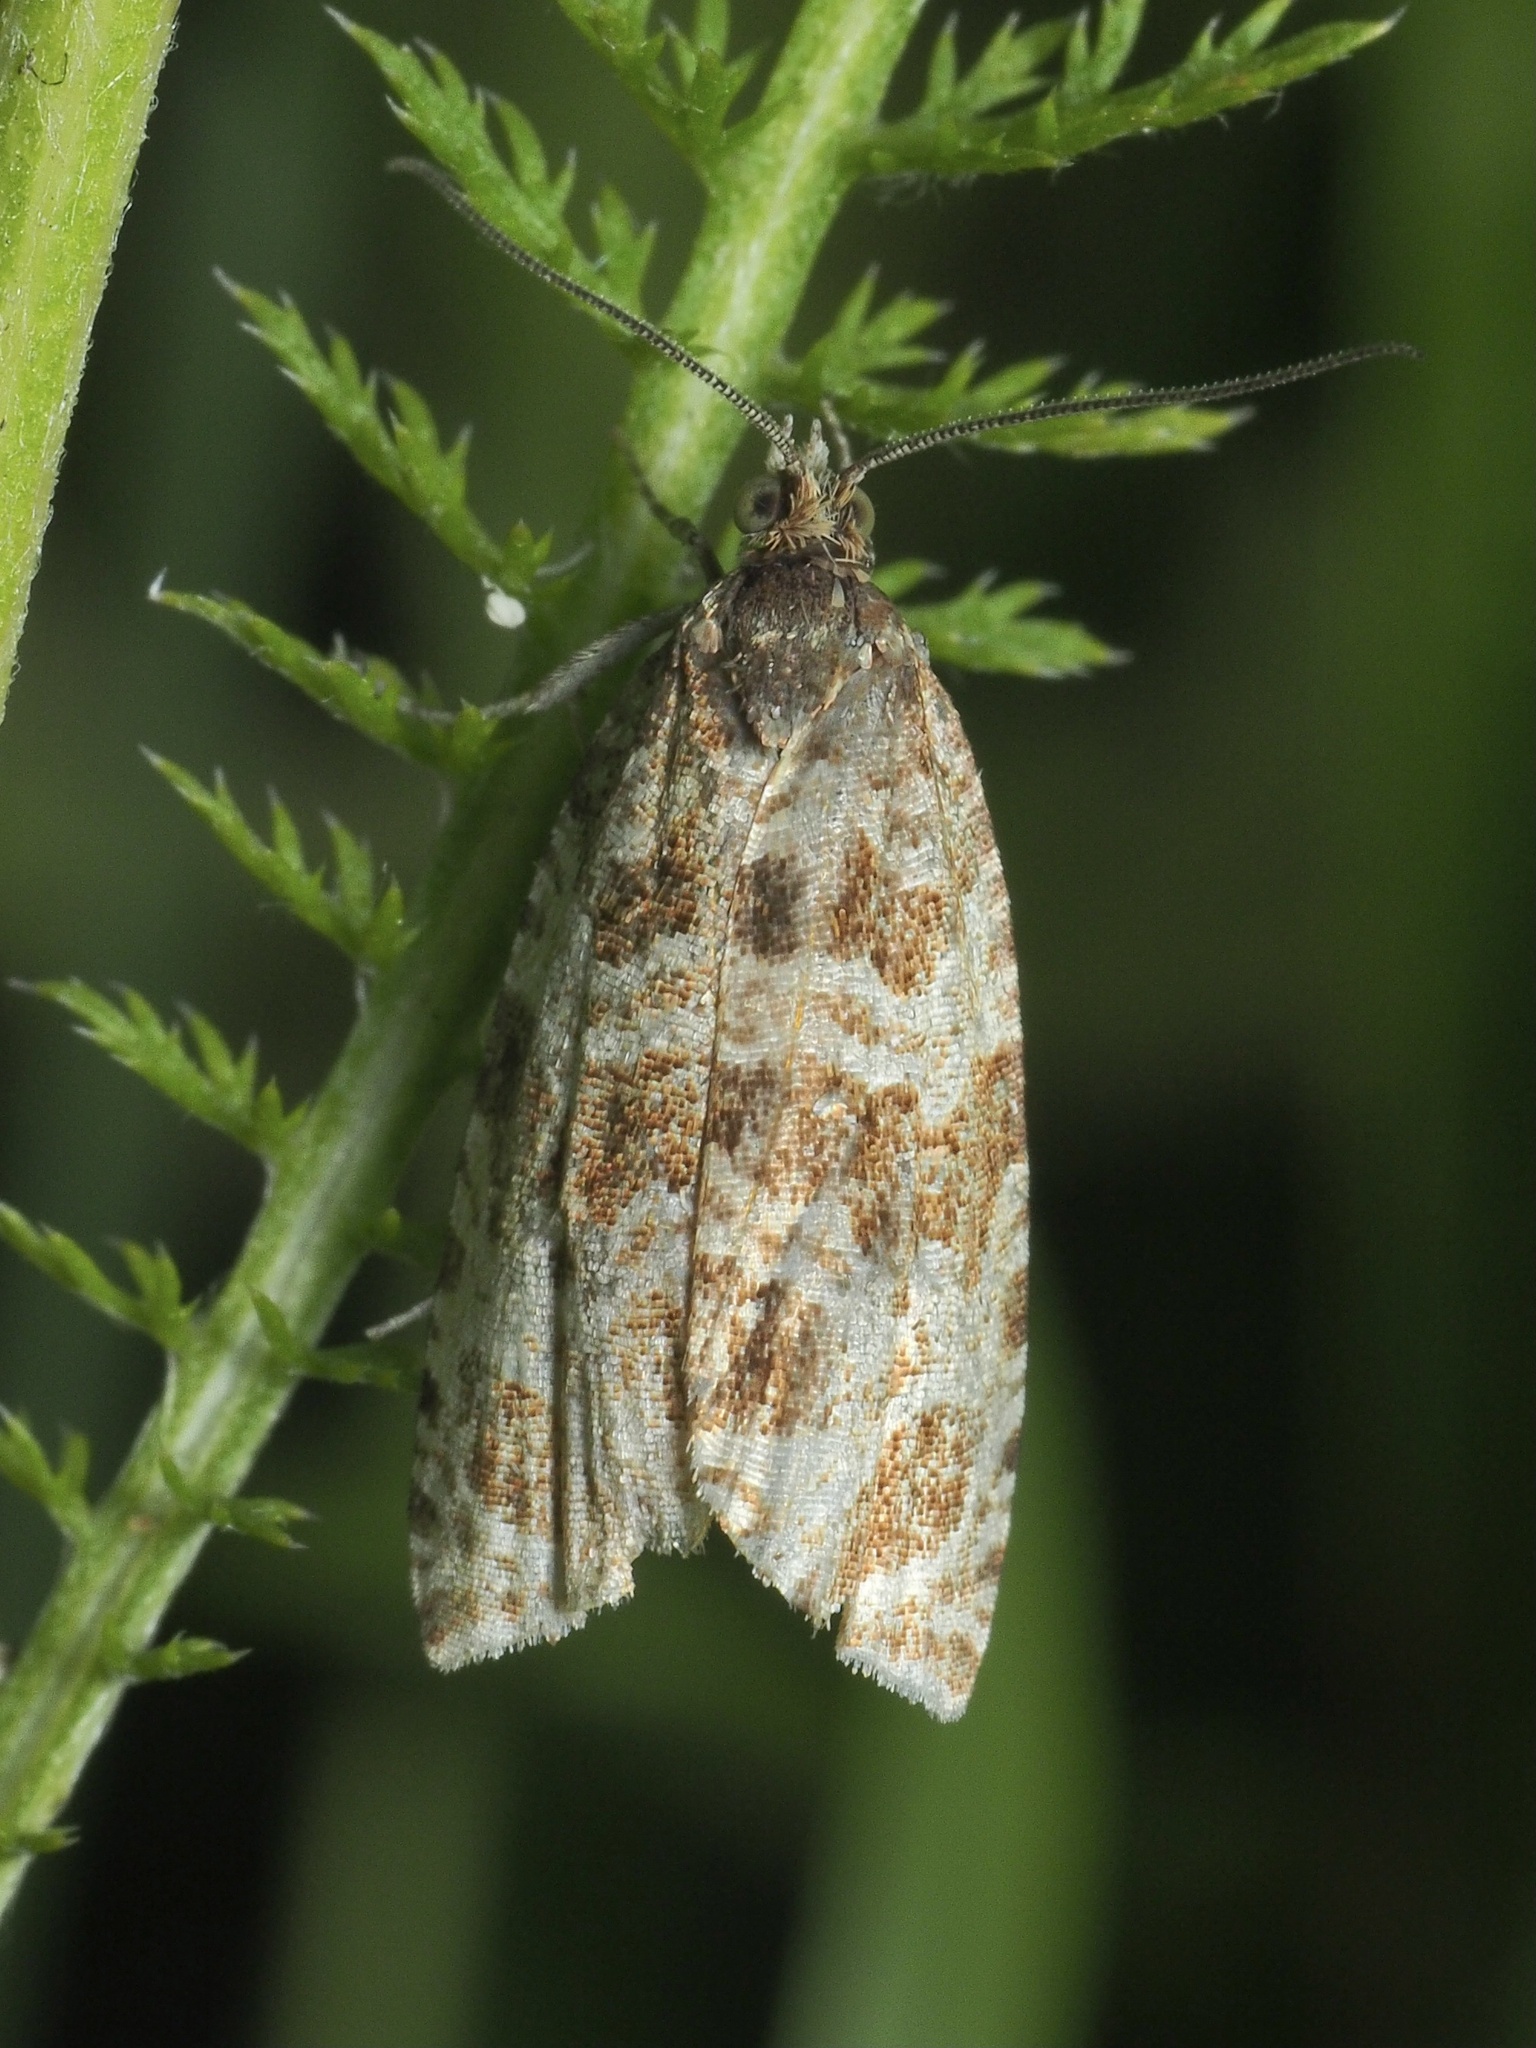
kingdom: Animalia
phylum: Arthropoda
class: Insecta
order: Lepidoptera
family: Tortricidae
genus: Syricoris
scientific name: Syricoris rivulana
